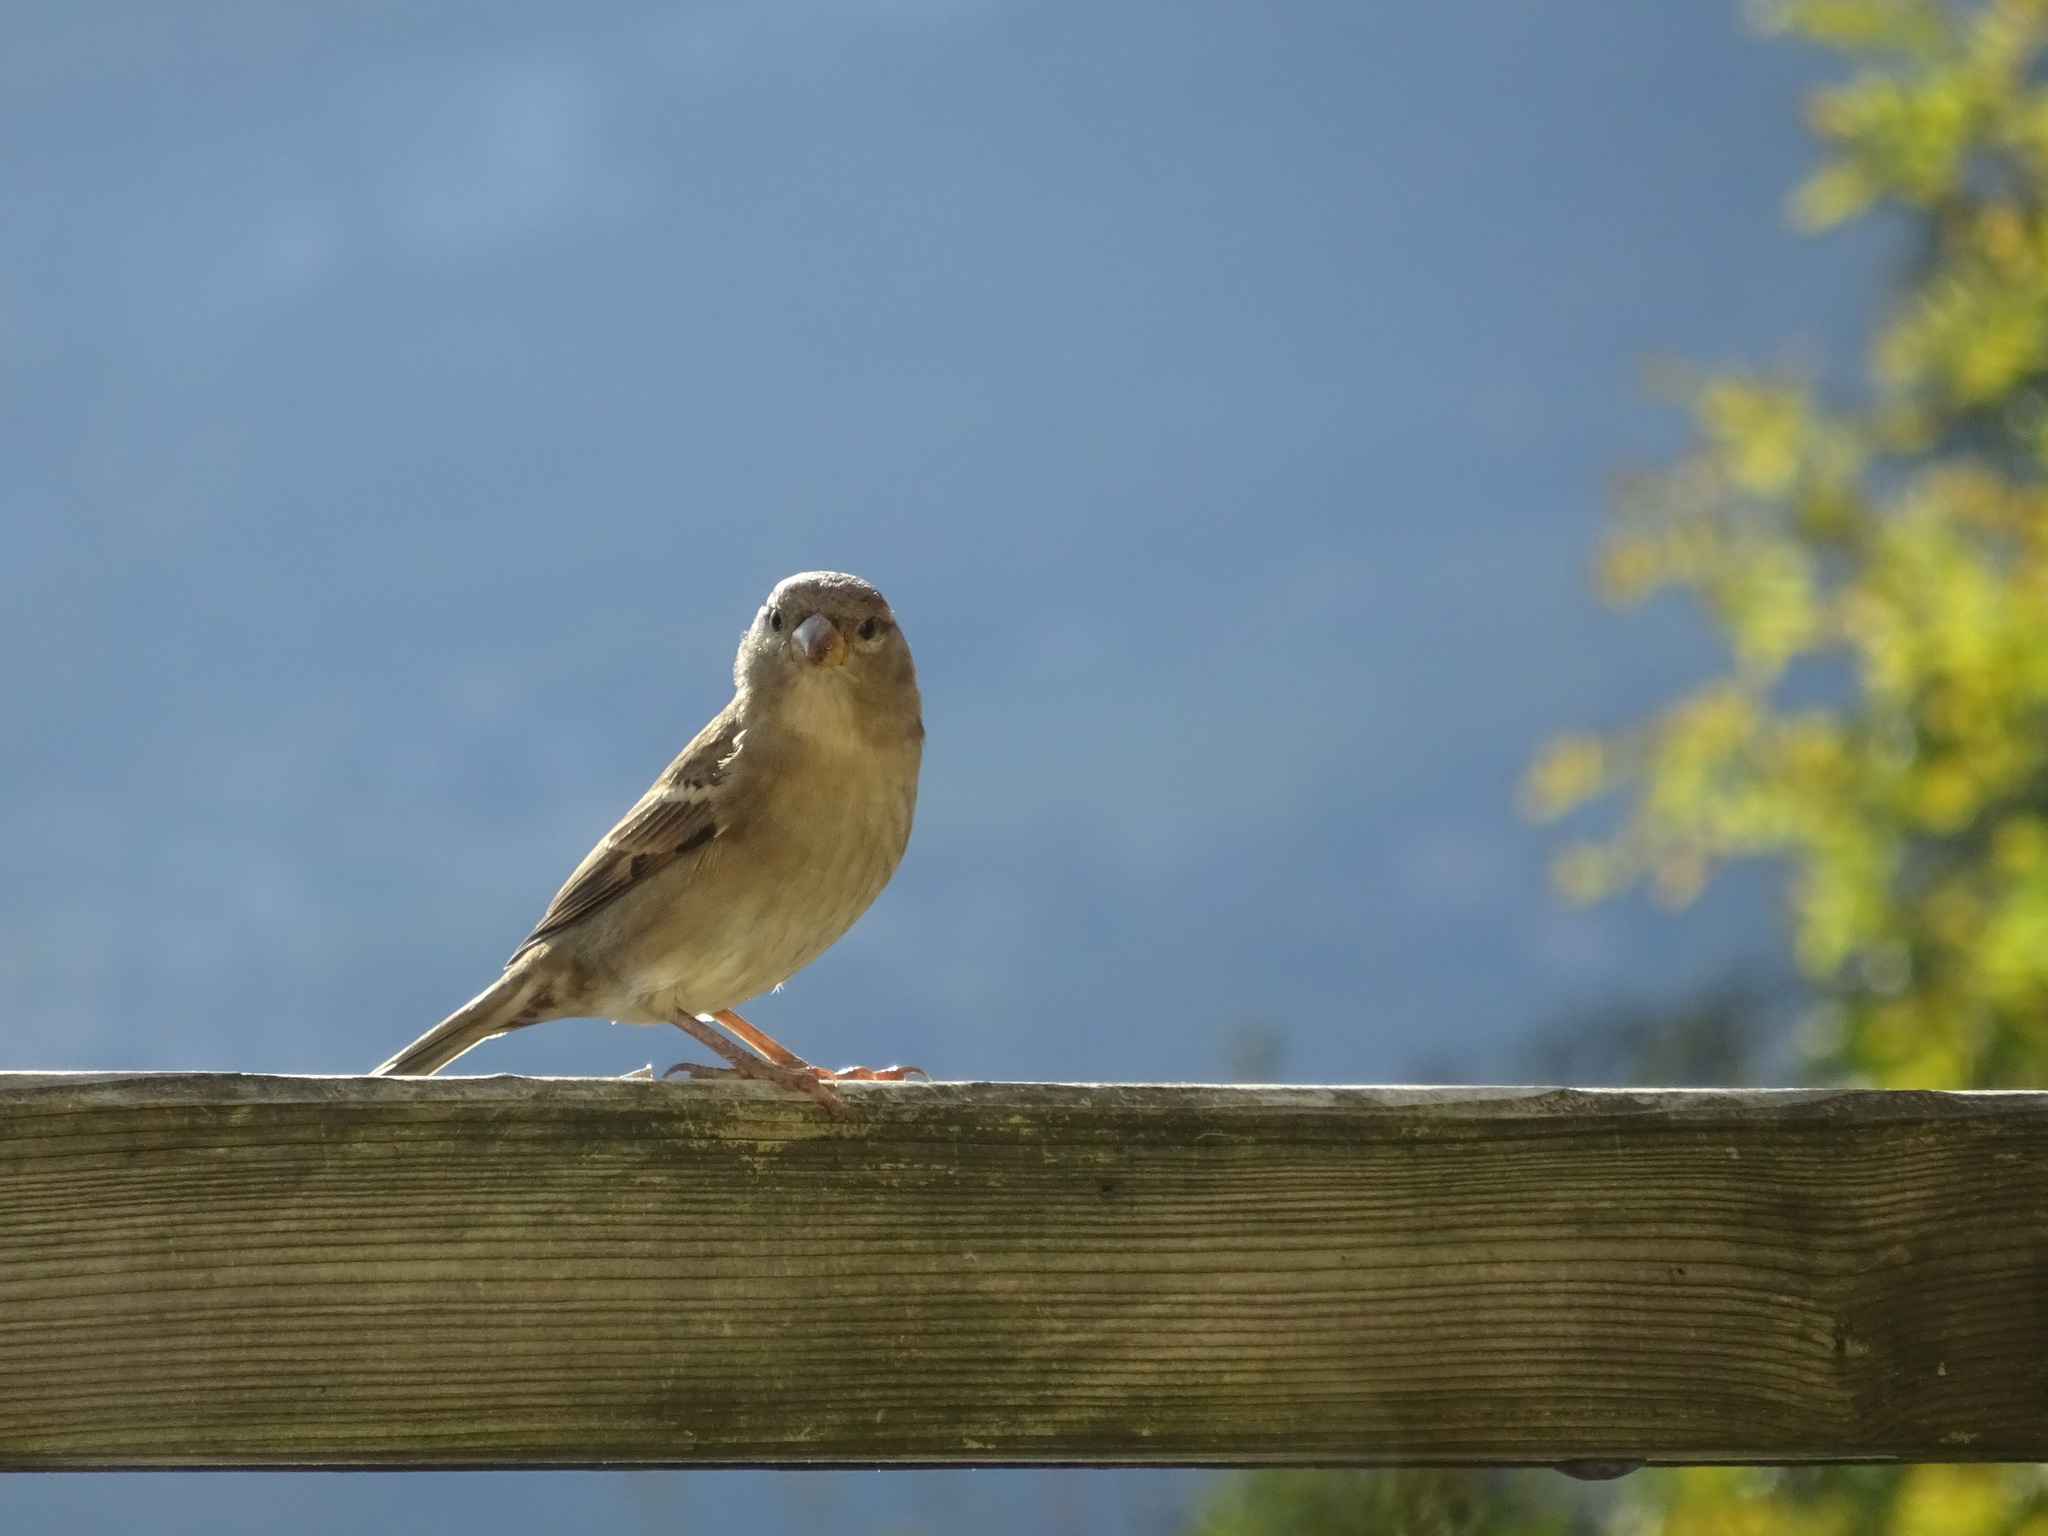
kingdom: Animalia
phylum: Chordata
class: Aves
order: Passeriformes
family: Passeridae
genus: Passer
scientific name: Passer domesticus
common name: House sparrow
